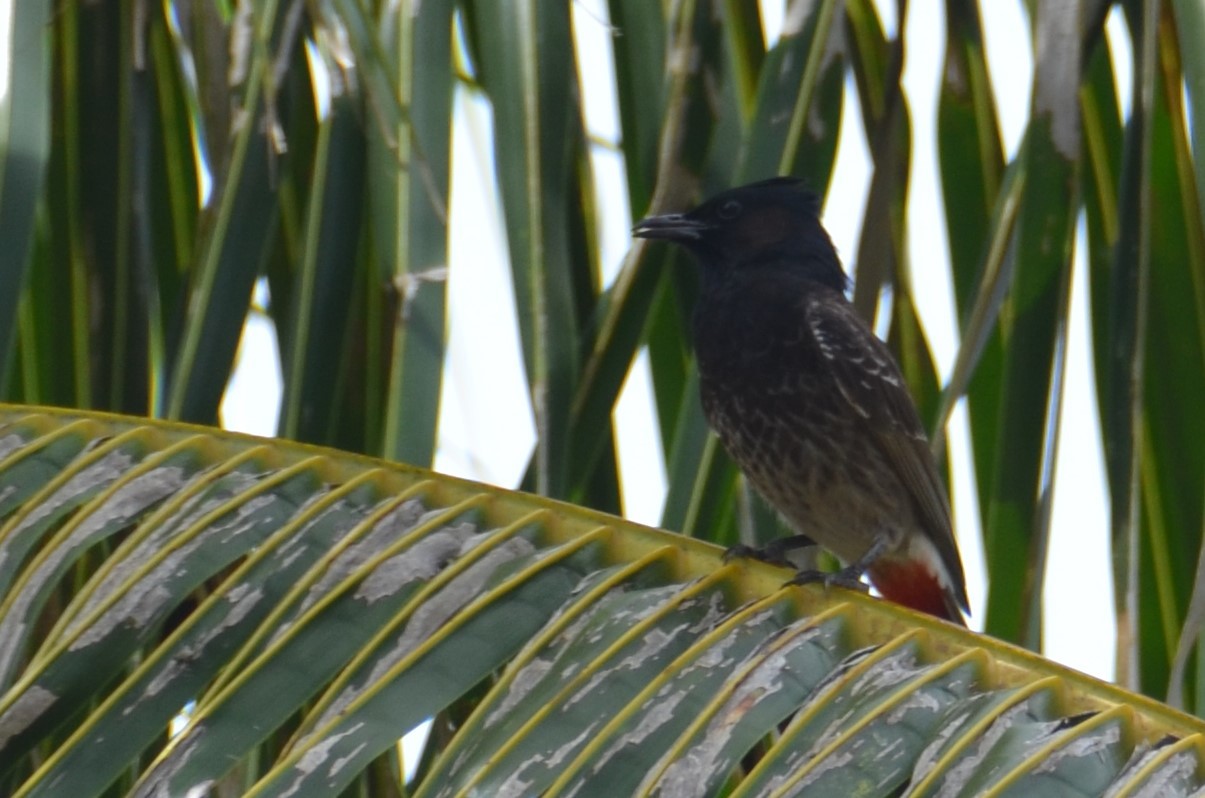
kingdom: Animalia
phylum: Chordata
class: Aves
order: Passeriformes
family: Pycnonotidae
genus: Pycnonotus
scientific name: Pycnonotus cafer
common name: Red-vented bulbul
